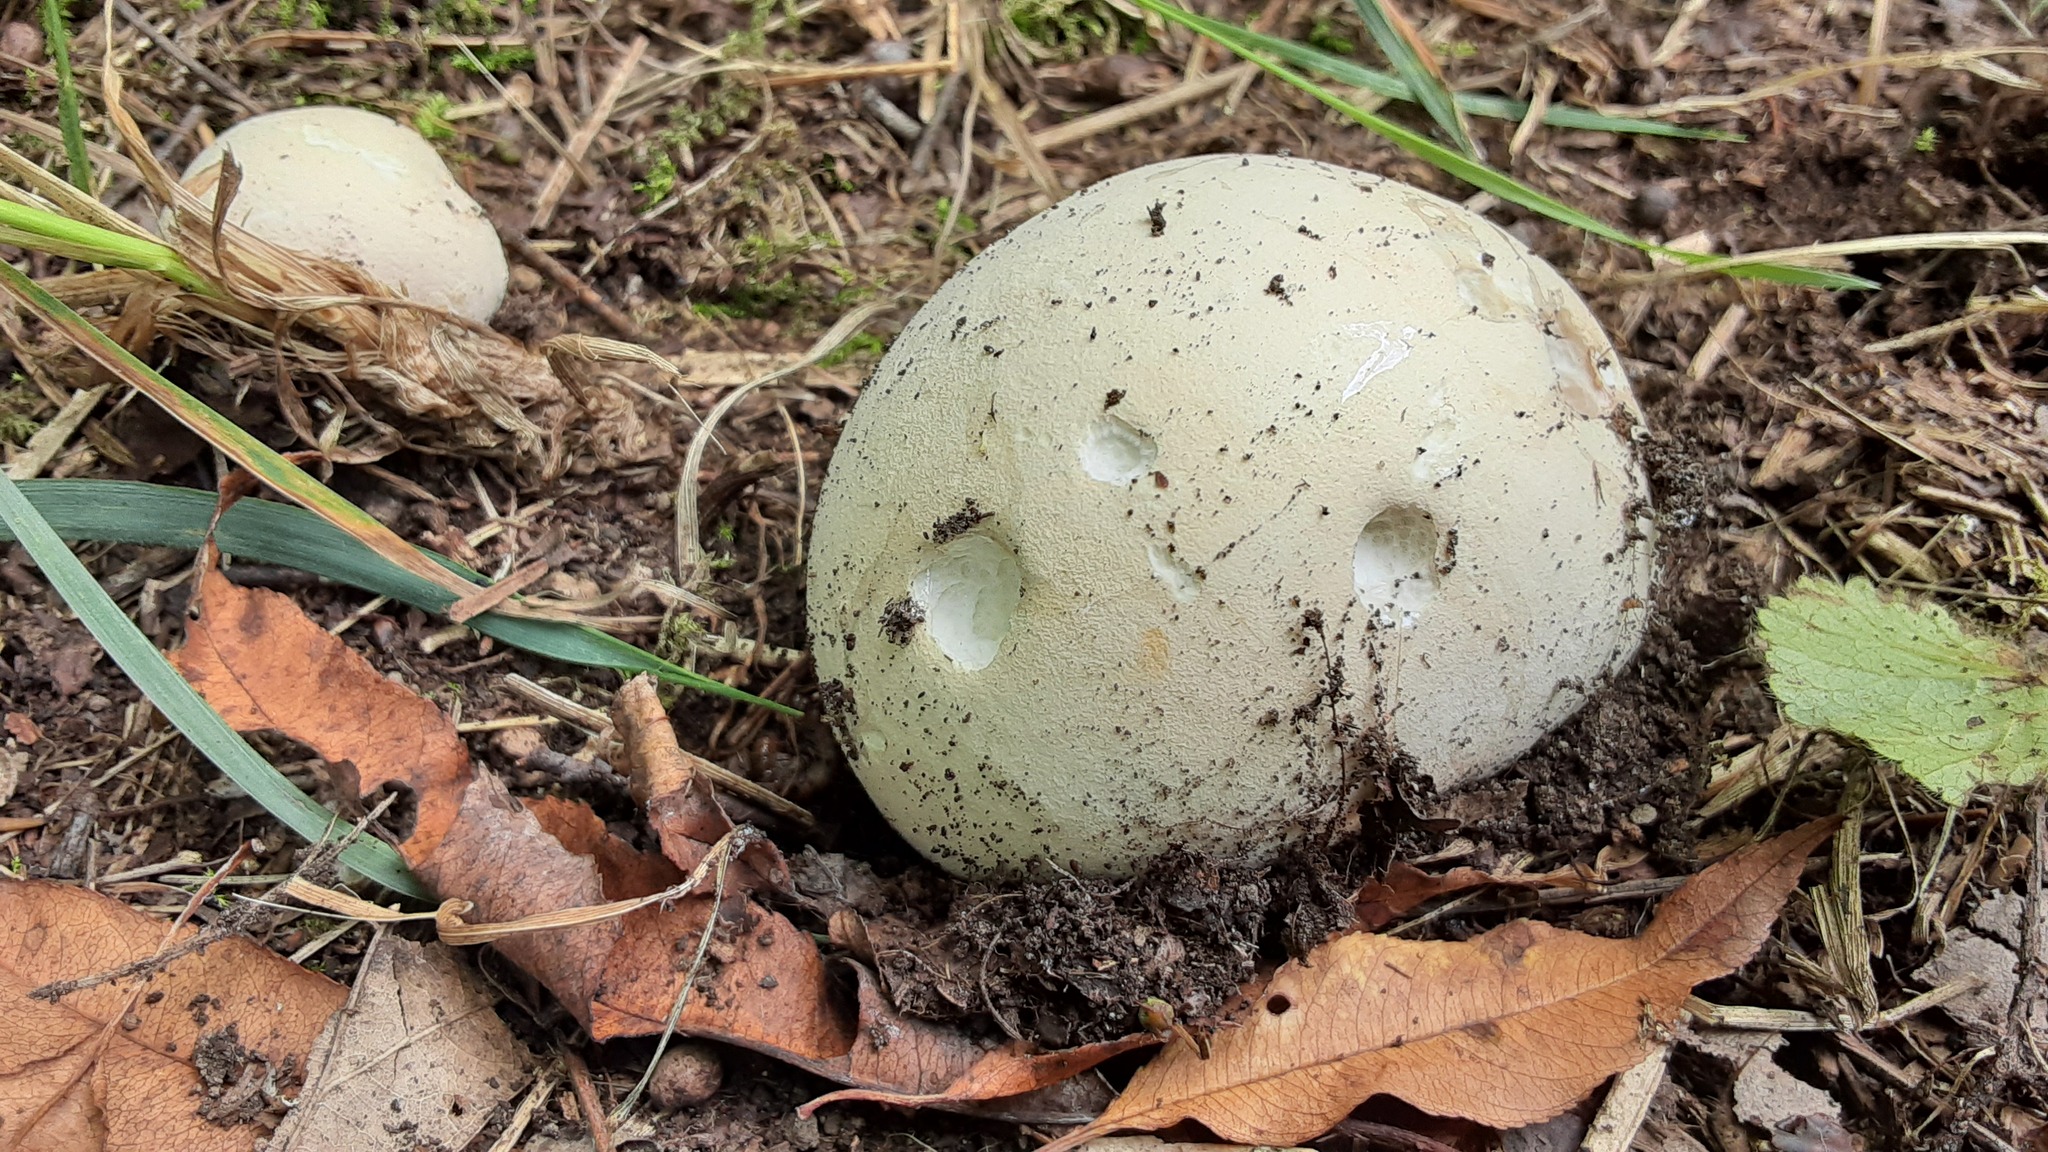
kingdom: Fungi
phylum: Basidiomycota
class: Agaricomycetes
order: Agaricales
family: Lycoperdaceae
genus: Calvatia
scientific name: Calvatia gigantea
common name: Giant puffball
